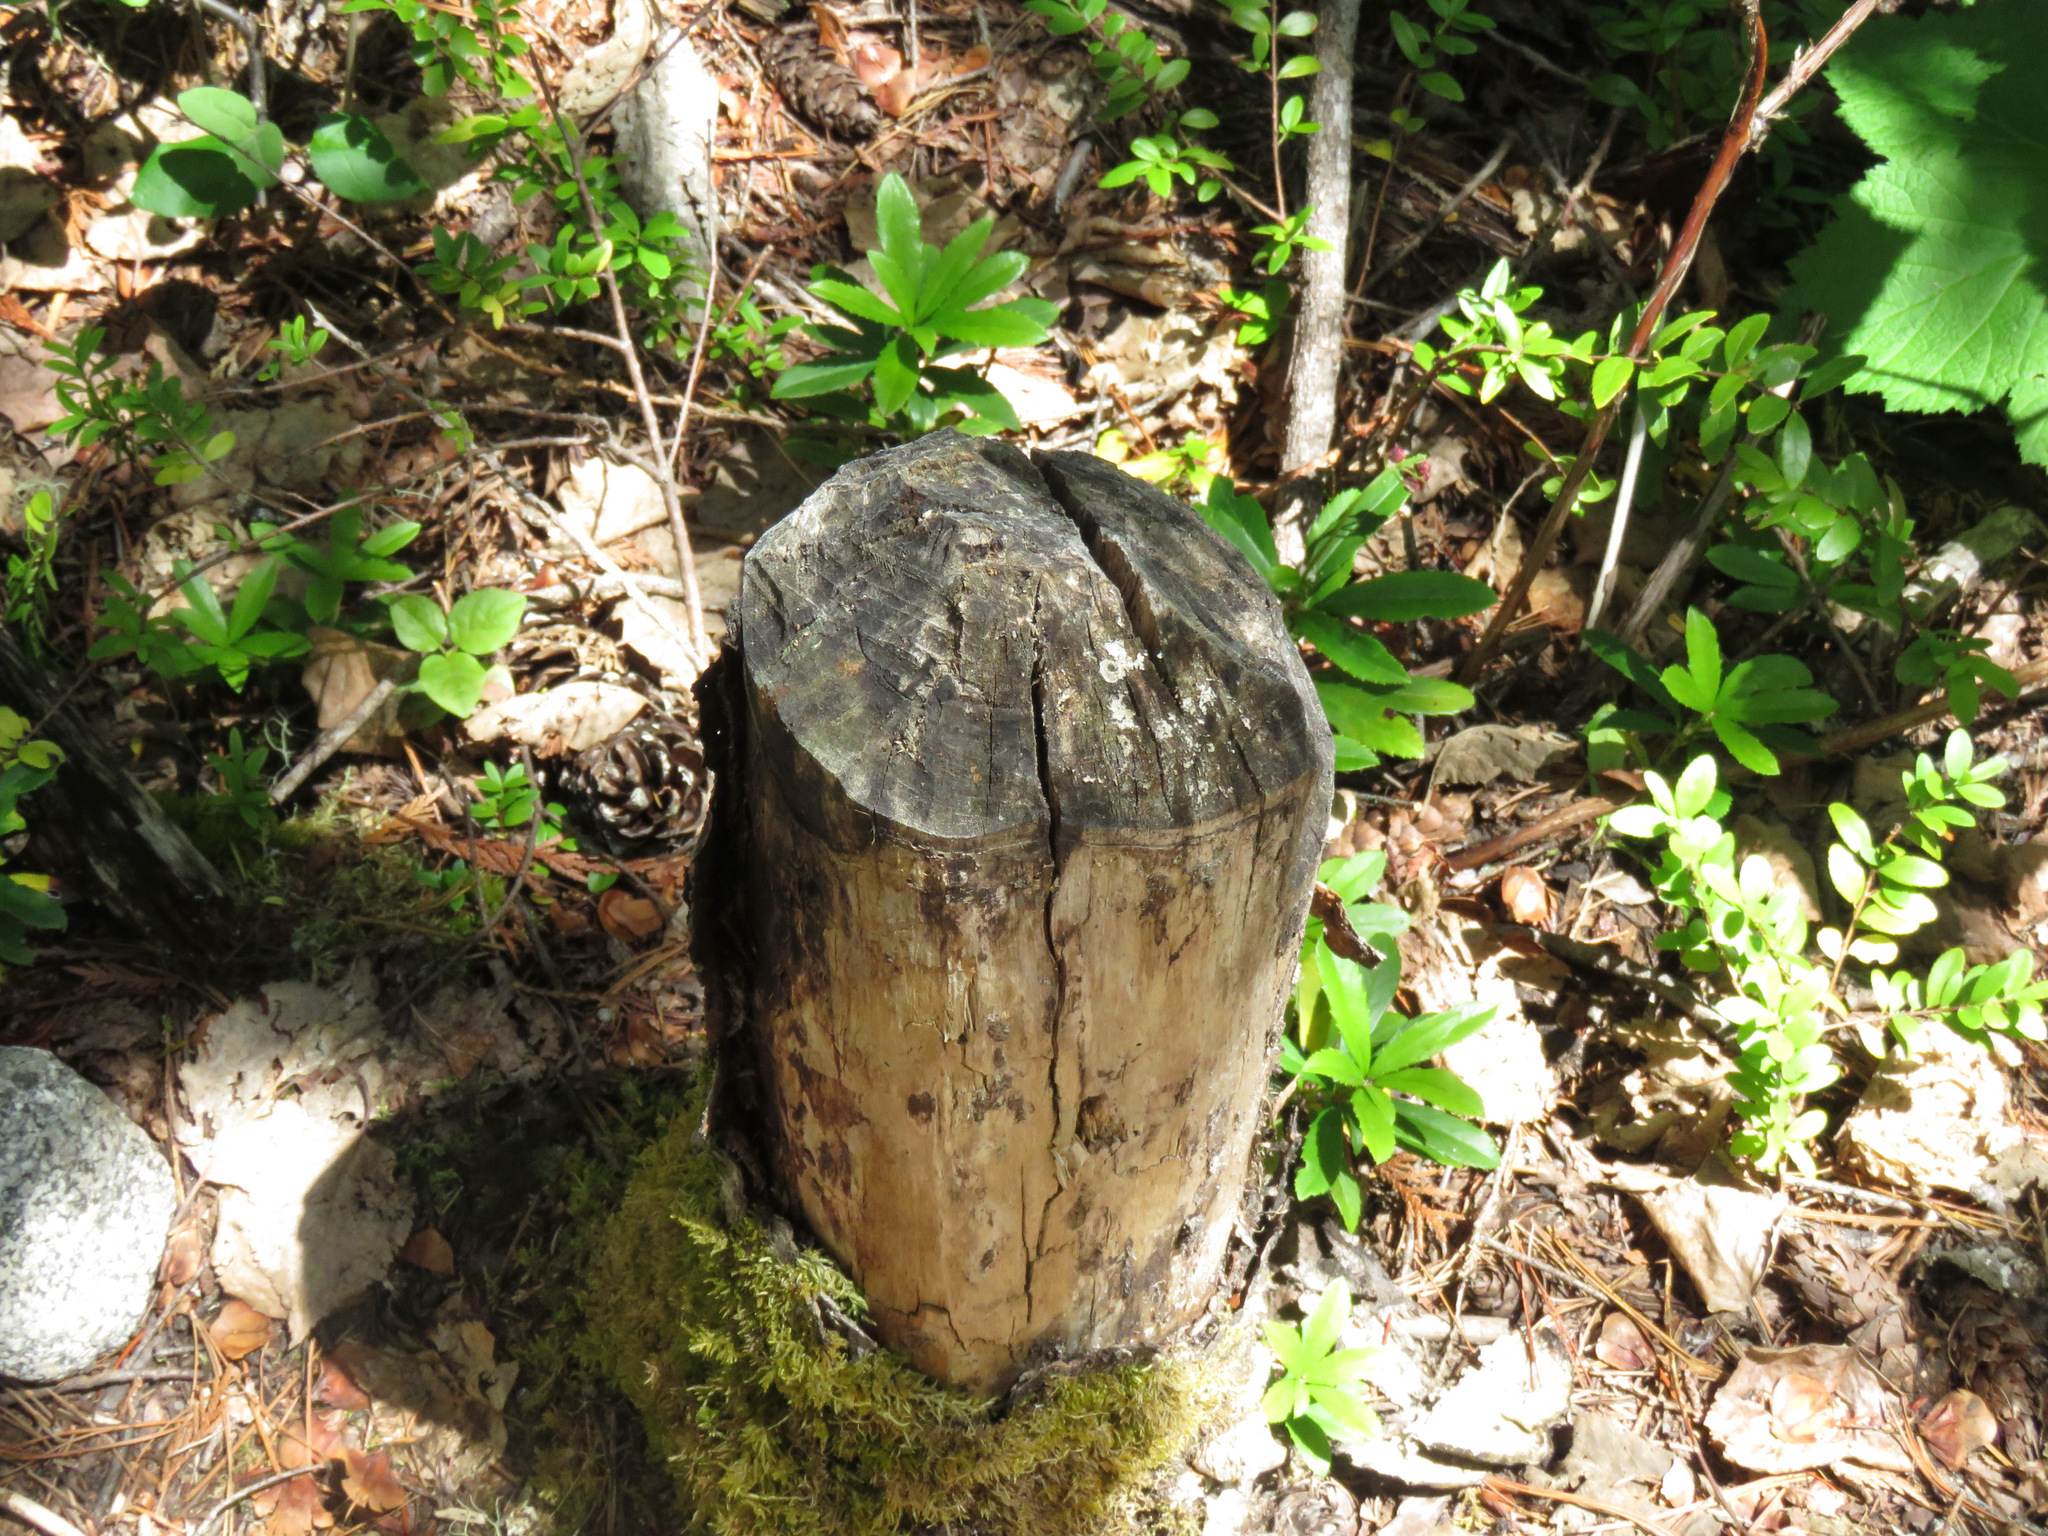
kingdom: Animalia
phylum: Chordata
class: Mammalia
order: Rodentia
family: Castoridae
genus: Castor
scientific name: Castor canadensis
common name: American beaver
